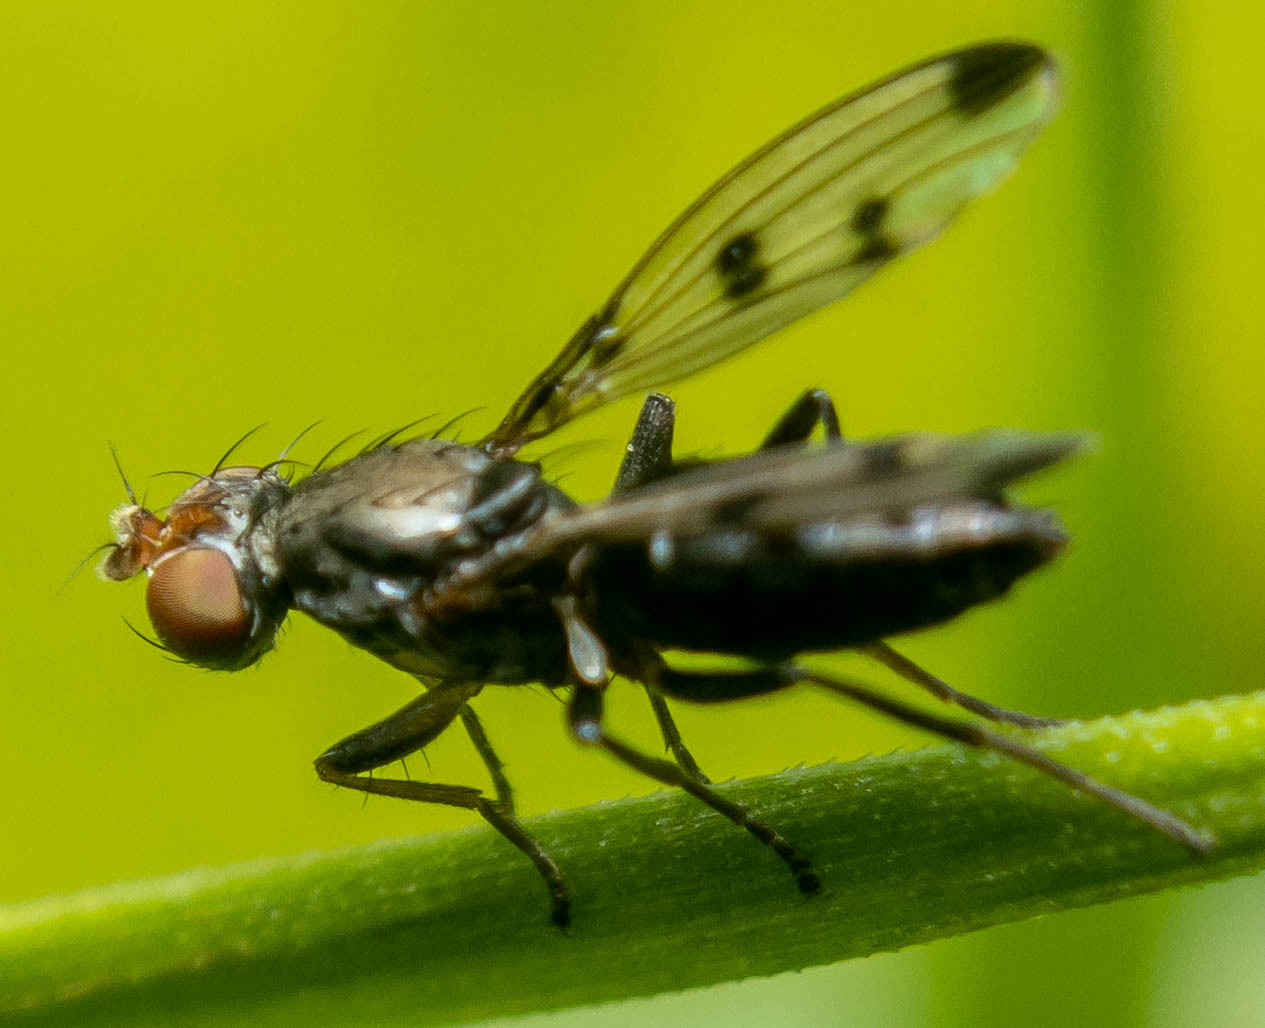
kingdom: Animalia
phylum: Arthropoda
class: Insecta
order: Diptera
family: Opomyzidae
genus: Geomyza
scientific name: Geomyza tripunctata
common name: Cereal fly
